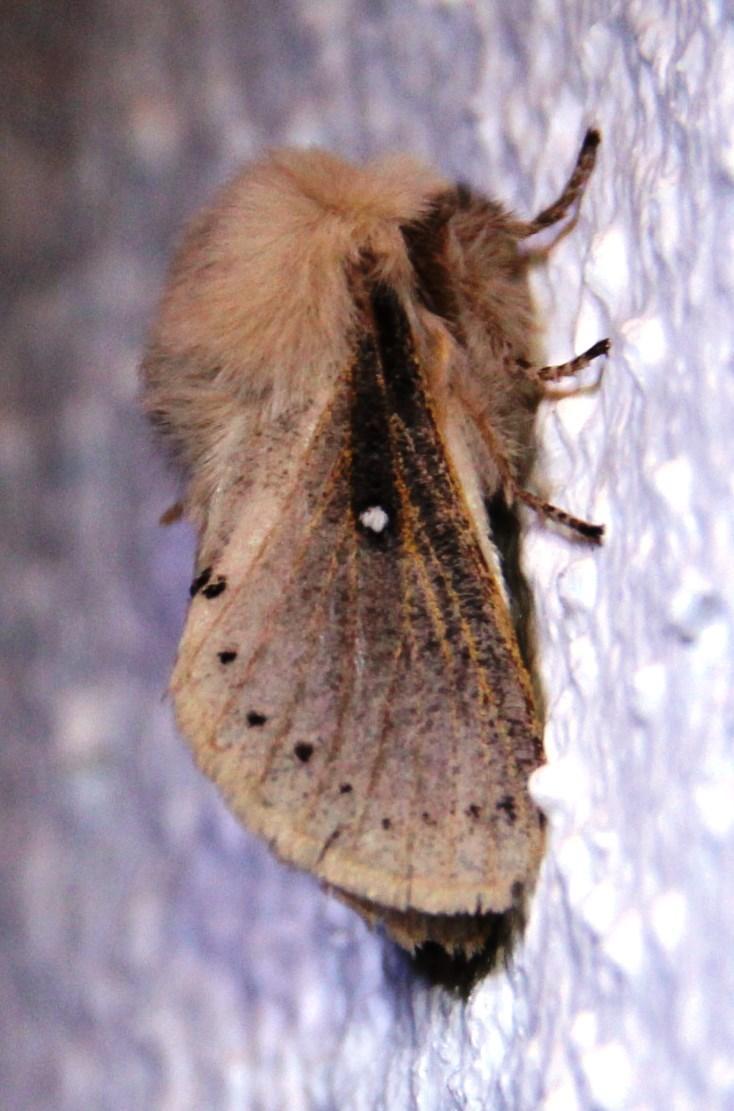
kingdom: Animalia
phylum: Arthropoda
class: Insecta
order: Lepidoptera
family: Lasiocampidae
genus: Bombycopsis
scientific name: Bombycopsis tephrobaphes
